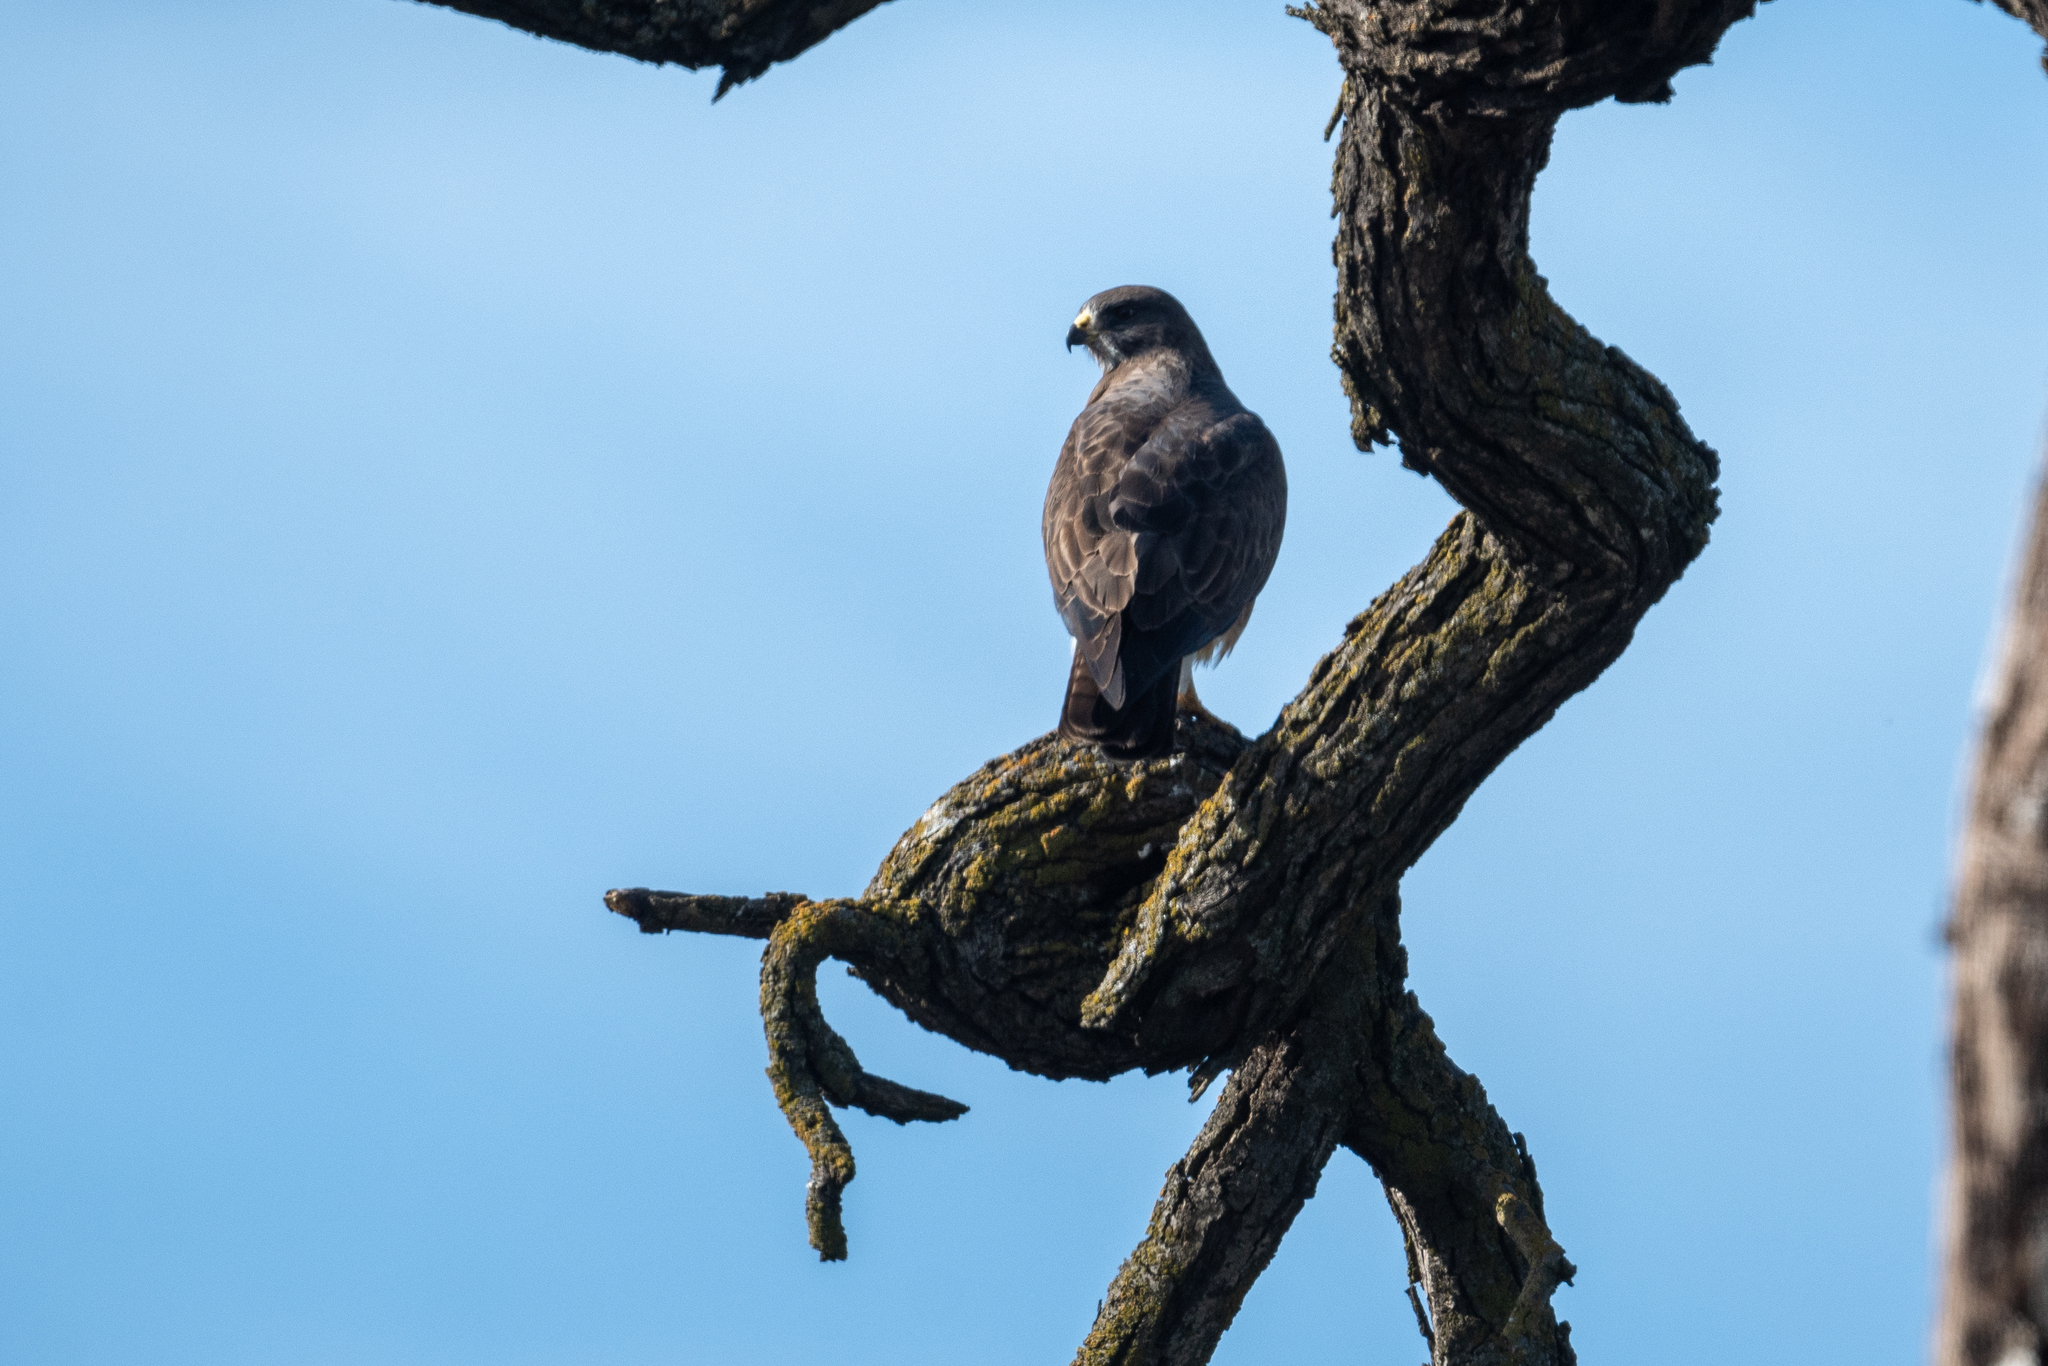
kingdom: Animalia
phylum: Chordata
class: Aves
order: Accipitriformes
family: Accipitridae
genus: Buteo
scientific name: Buteo swainsoni
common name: Swainson's hawk
